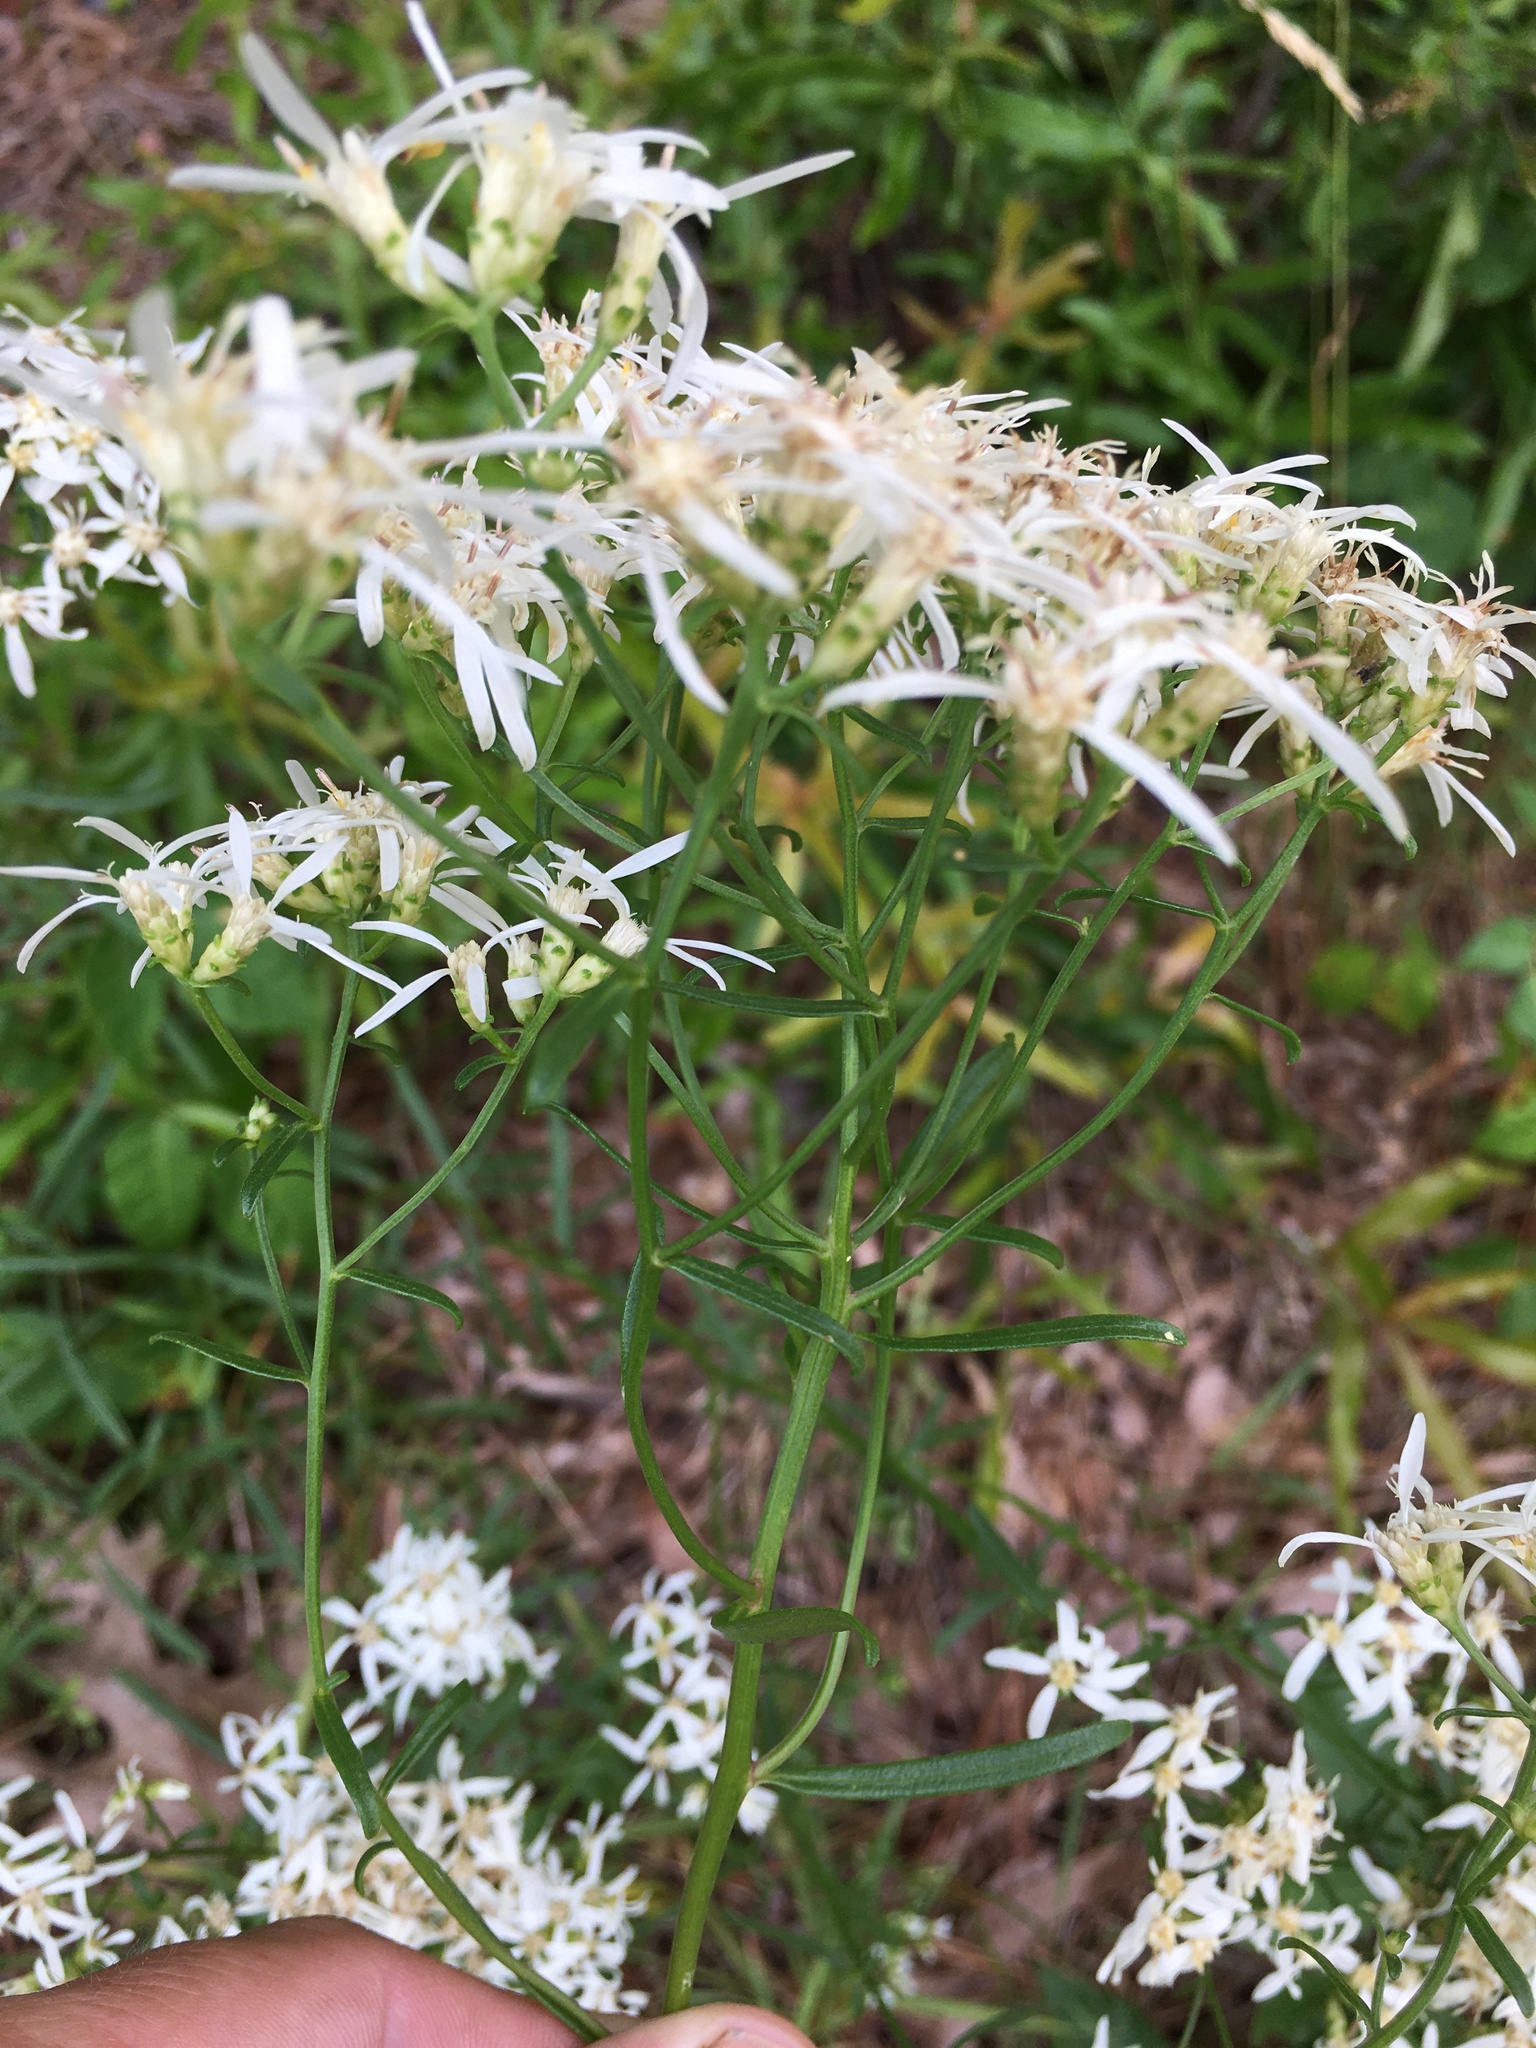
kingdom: Plantae
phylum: Tracheophyta
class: Magnoliopsida
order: Asterales
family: Asteraceae
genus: Sericocarpus
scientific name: Sericocarpus linifolius
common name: Narrow-leaf aster
